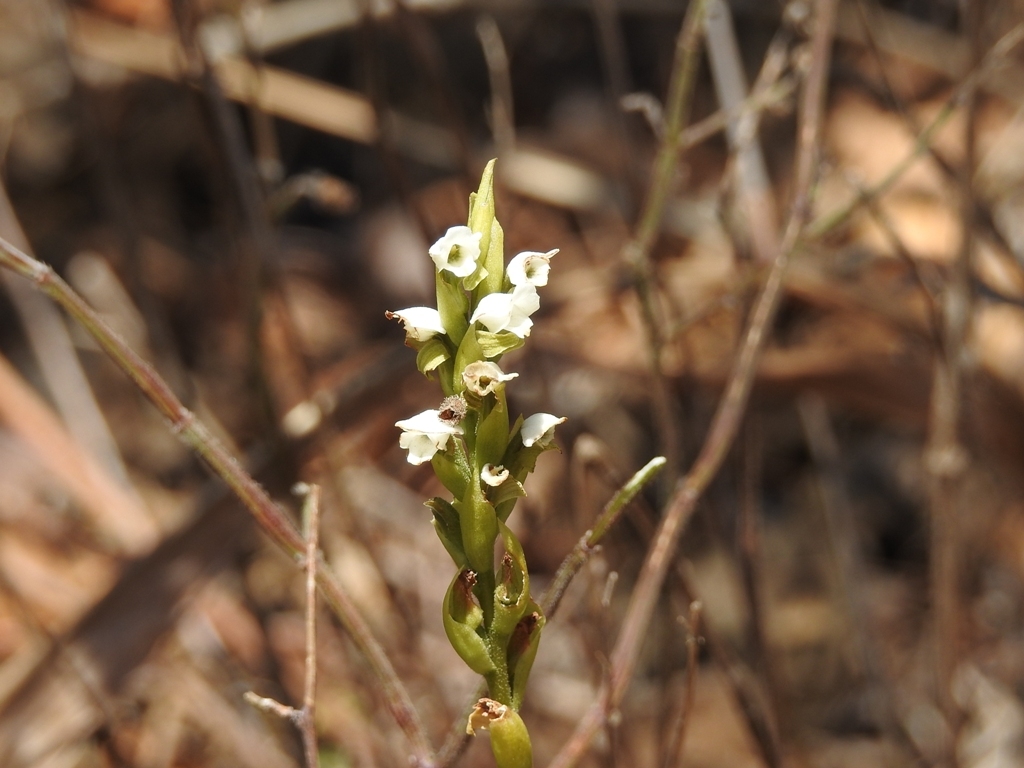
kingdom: Plantae
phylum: Tracheophyta
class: Liliopsida
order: Asparagales
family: Orchidaceae
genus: Aulosepalum
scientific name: Aulosepalum hemichrea
